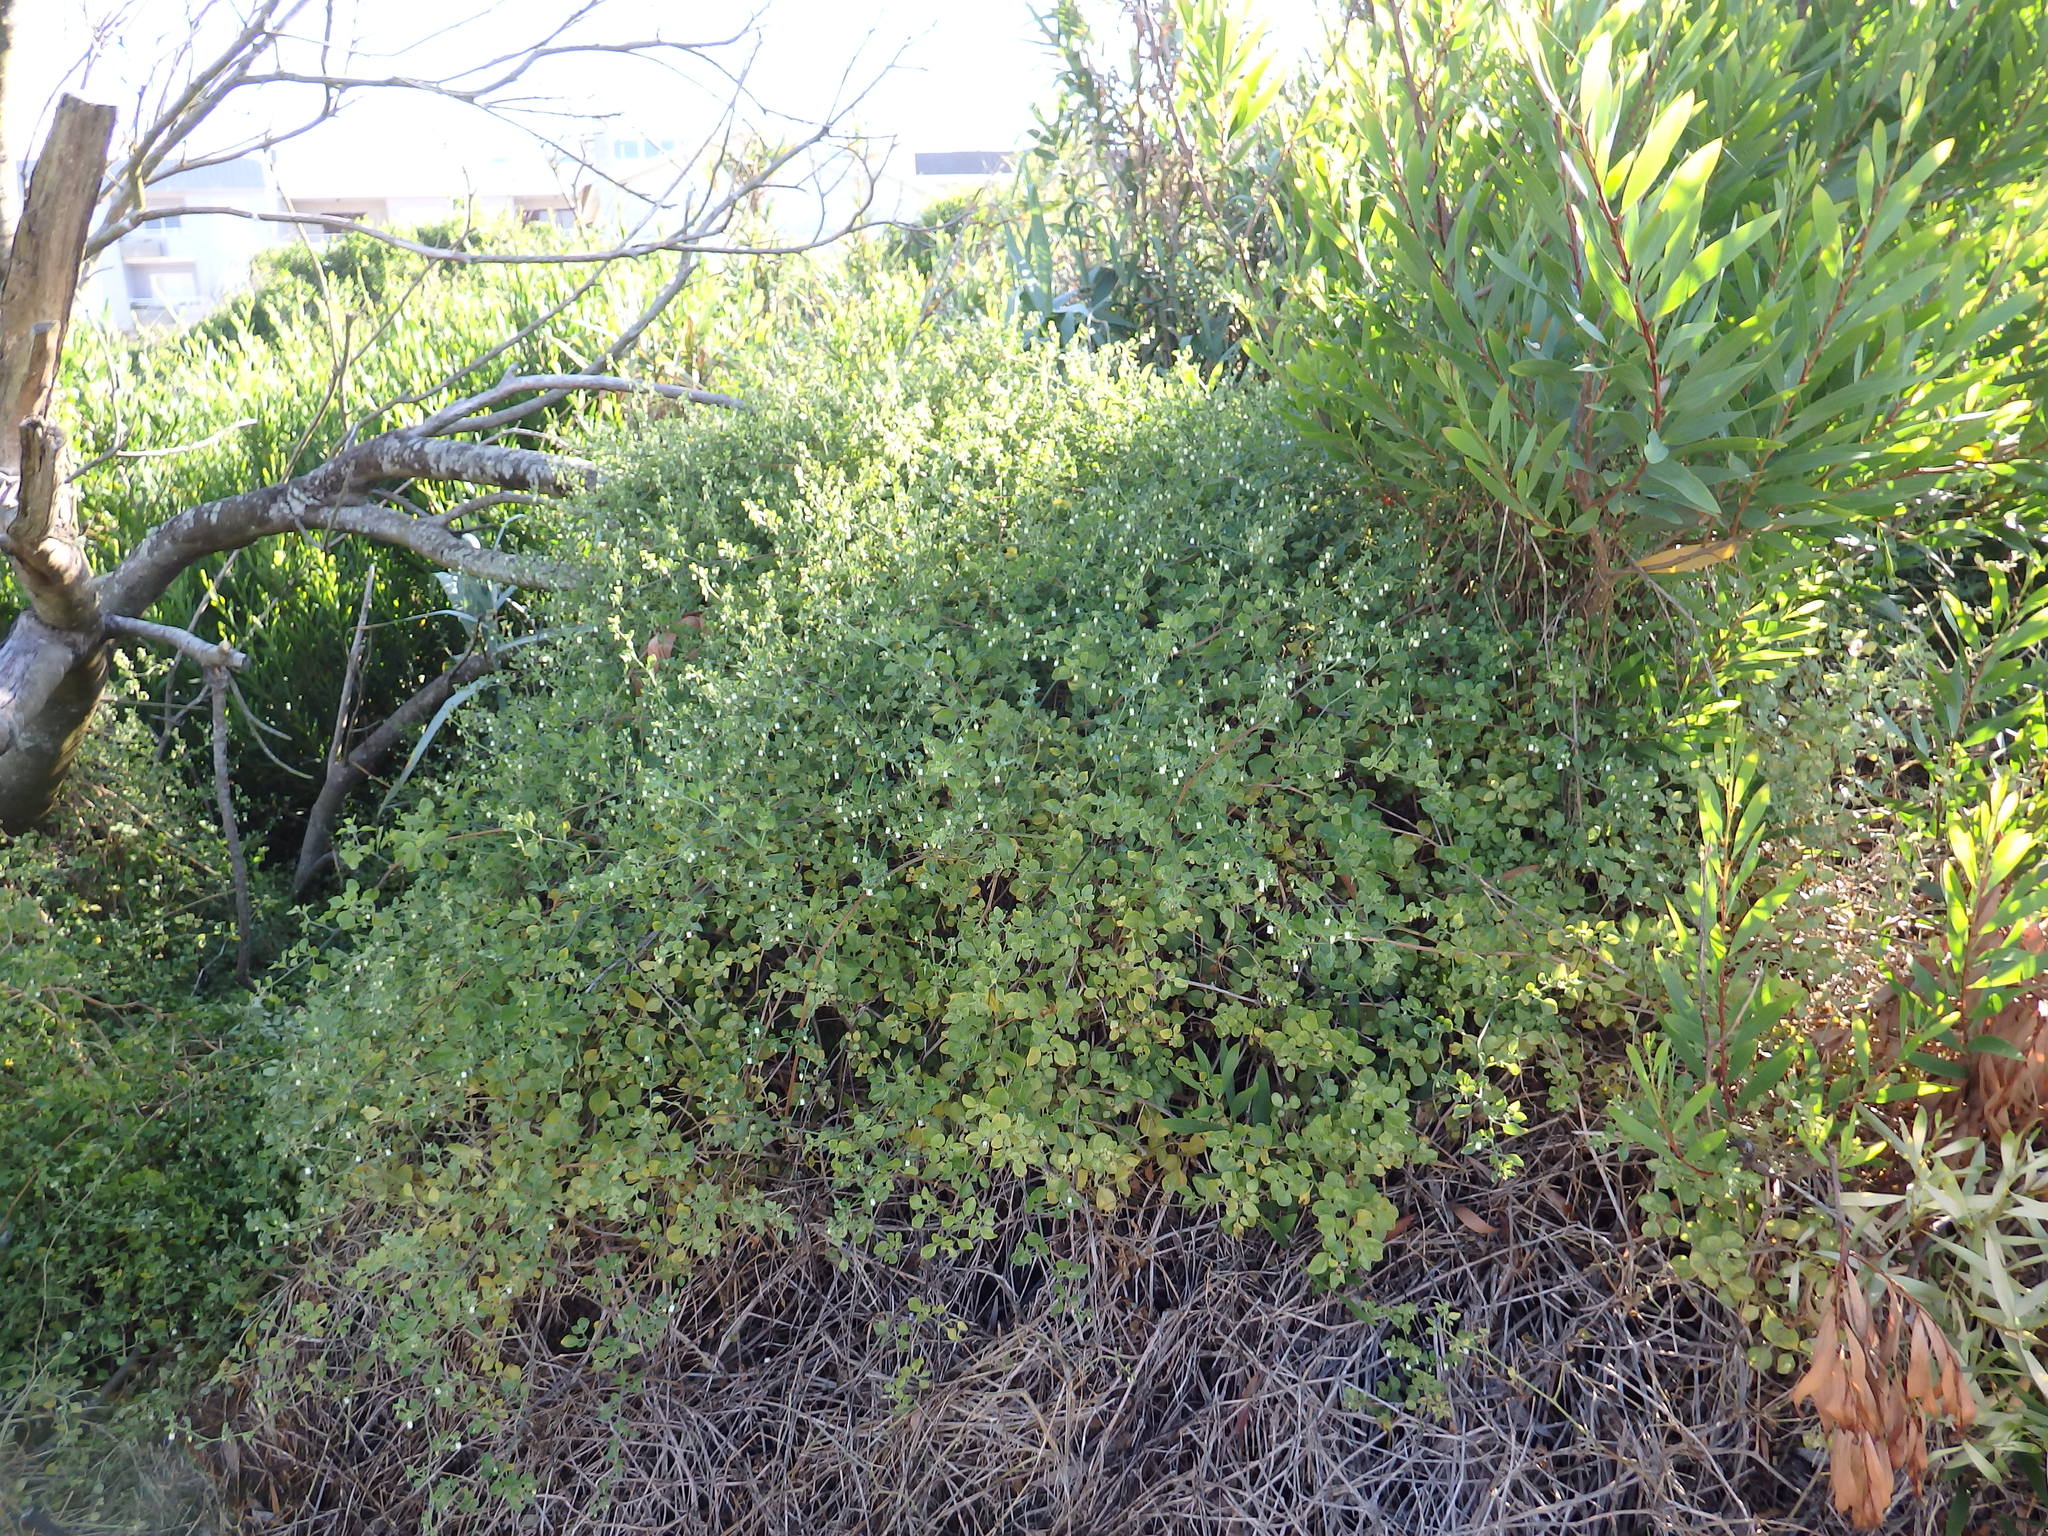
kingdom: Plantae
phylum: Tracheophyta
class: Magnoliopsida
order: Solanales
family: Solanaceae
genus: Salpichroa
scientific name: Salpichroa origanifolia
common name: Lily-of-the-valley-vine
